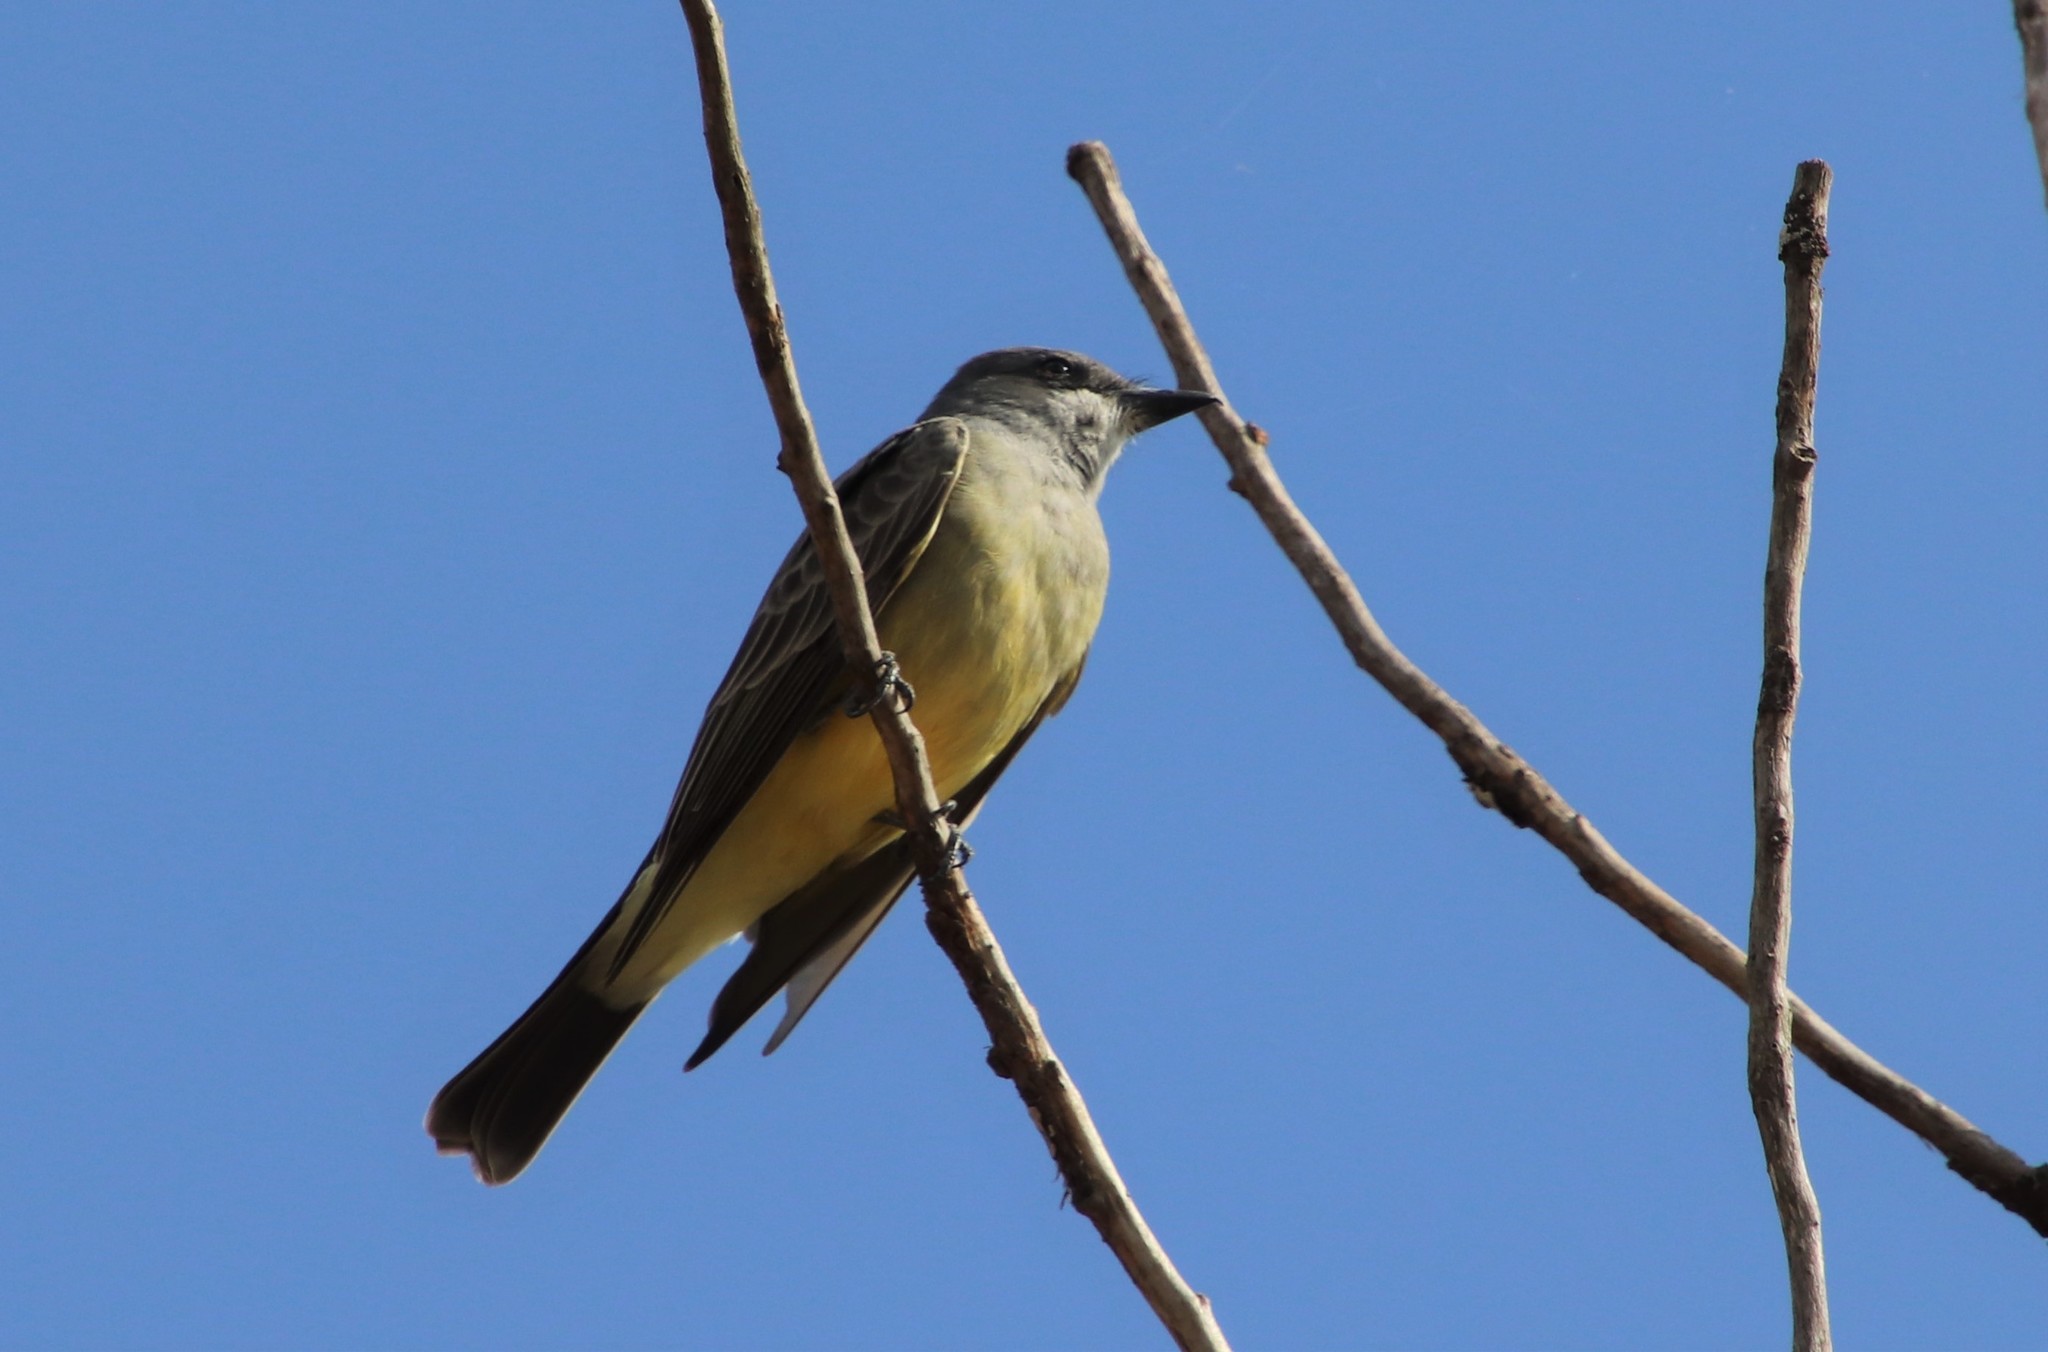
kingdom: Animalia
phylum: Chordata
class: Aves
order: Passeriformes
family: Tyrannidae
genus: Tyrannus
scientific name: Tyrannus vociferans
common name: Cassin's kingbird
